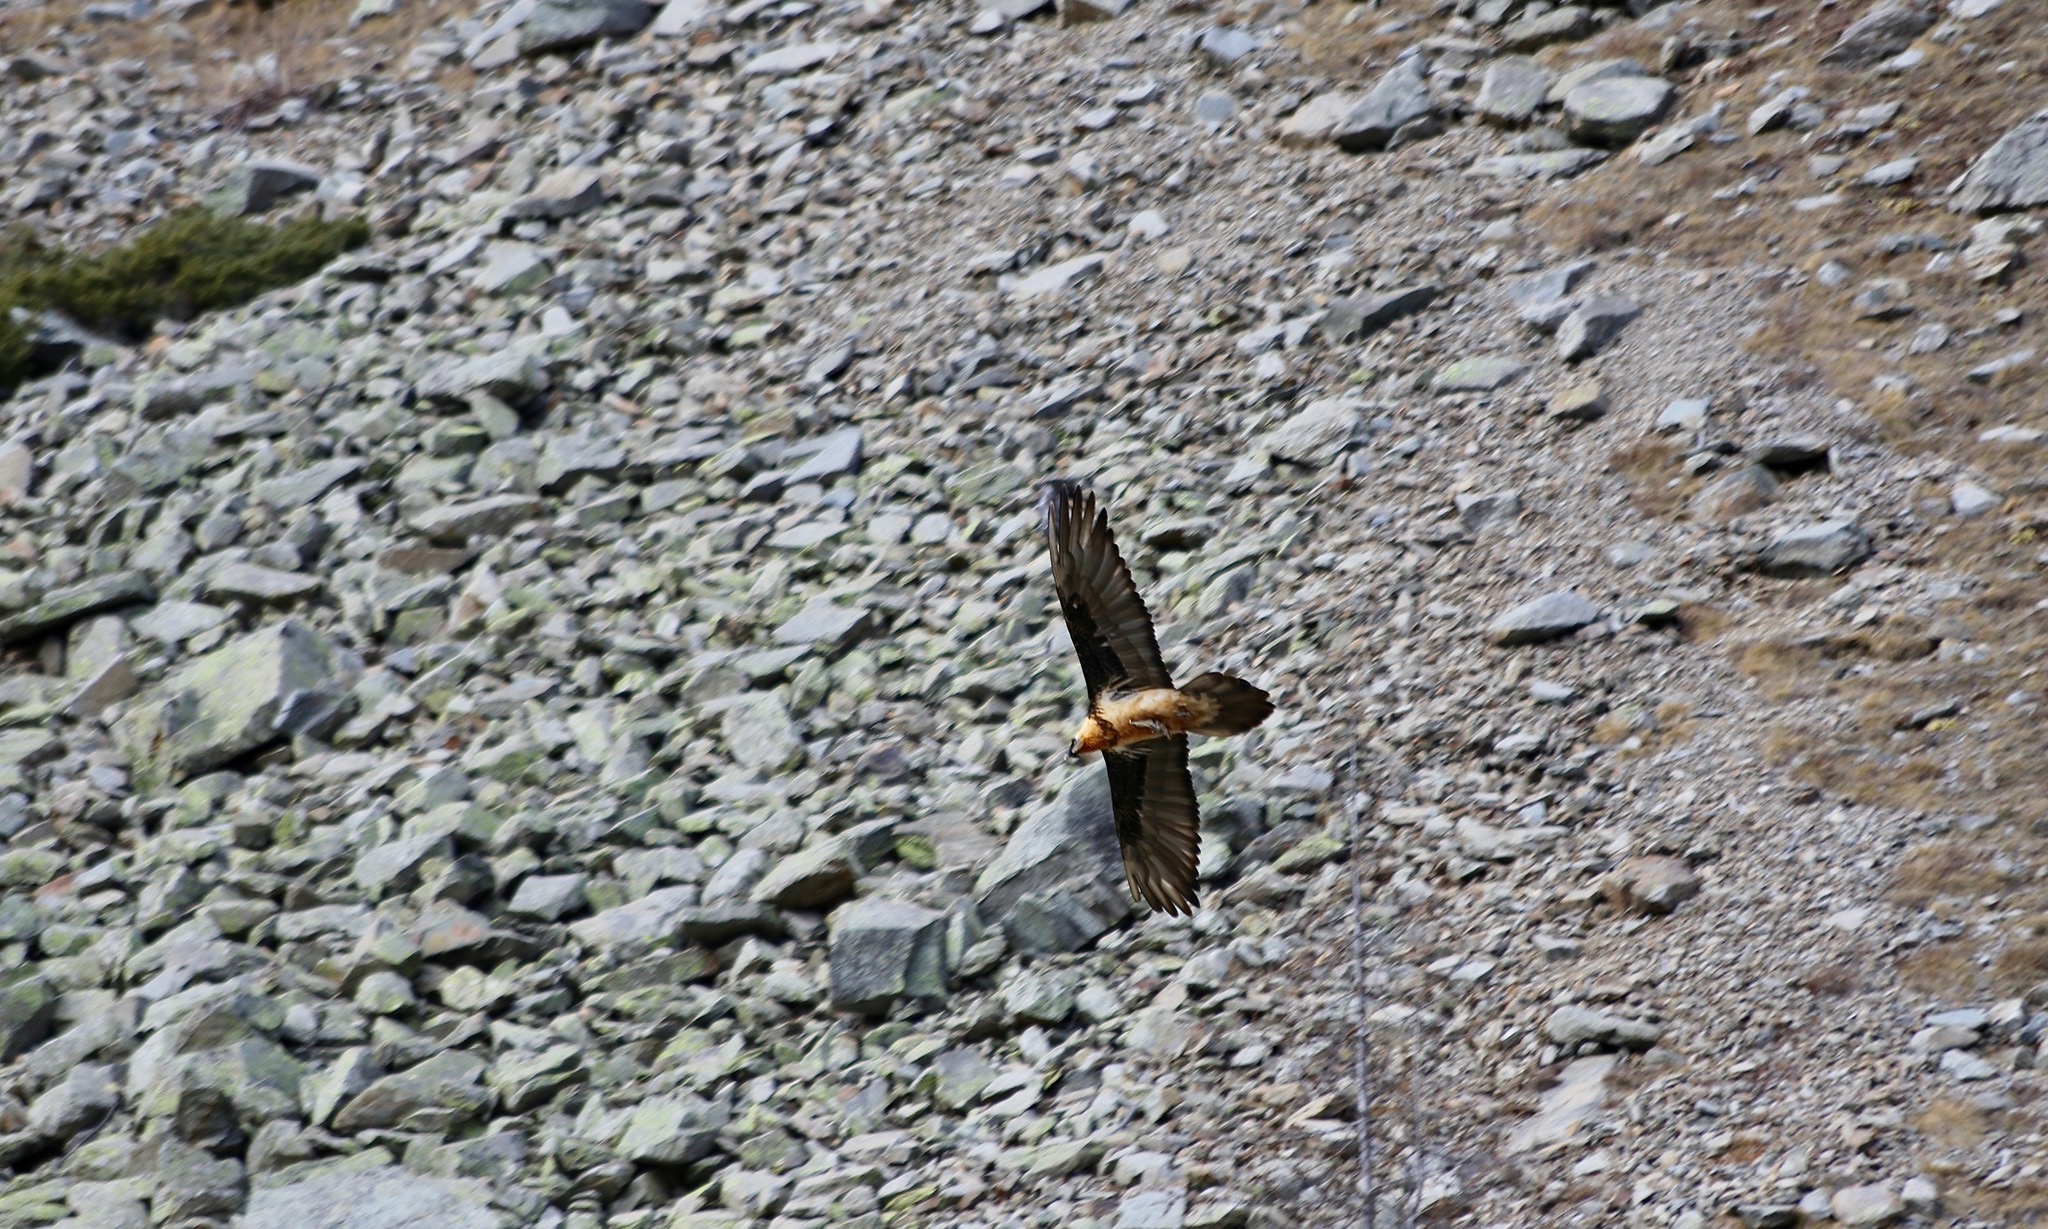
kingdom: Animalia
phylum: Chordata
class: Aves
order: Accipitriformes
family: Accipitridae
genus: Gypaetus
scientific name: Gypaetus barbatus
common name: Bearded vulture
